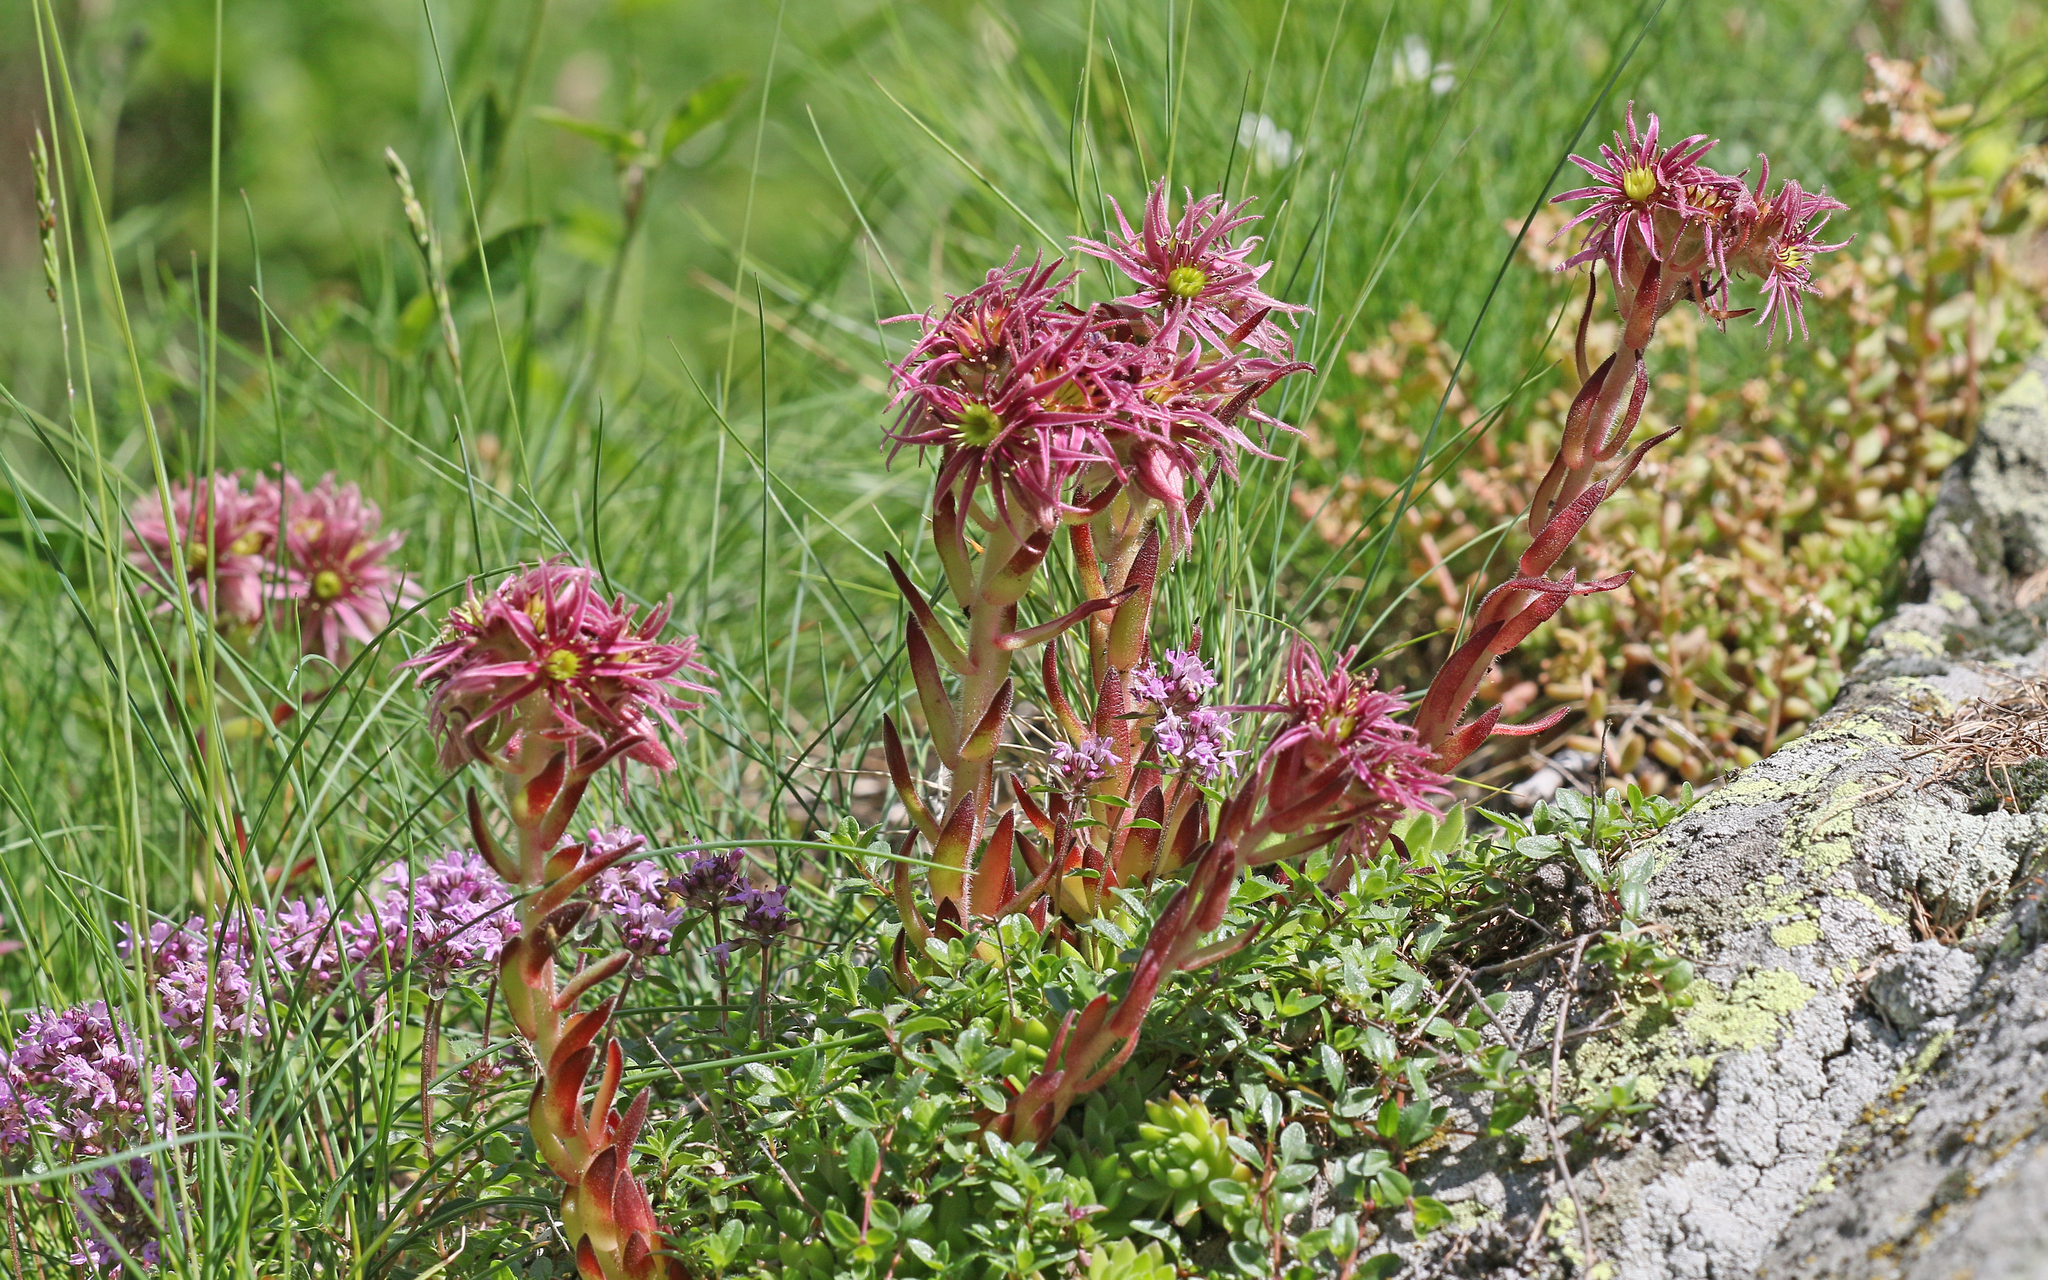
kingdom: Plantae
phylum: Tracheophyta
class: Magnoliopsida
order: Saxifragales
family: Crassulaceae
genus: Sempervivum
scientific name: Sempervivum montanum
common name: Mountain house-leek
